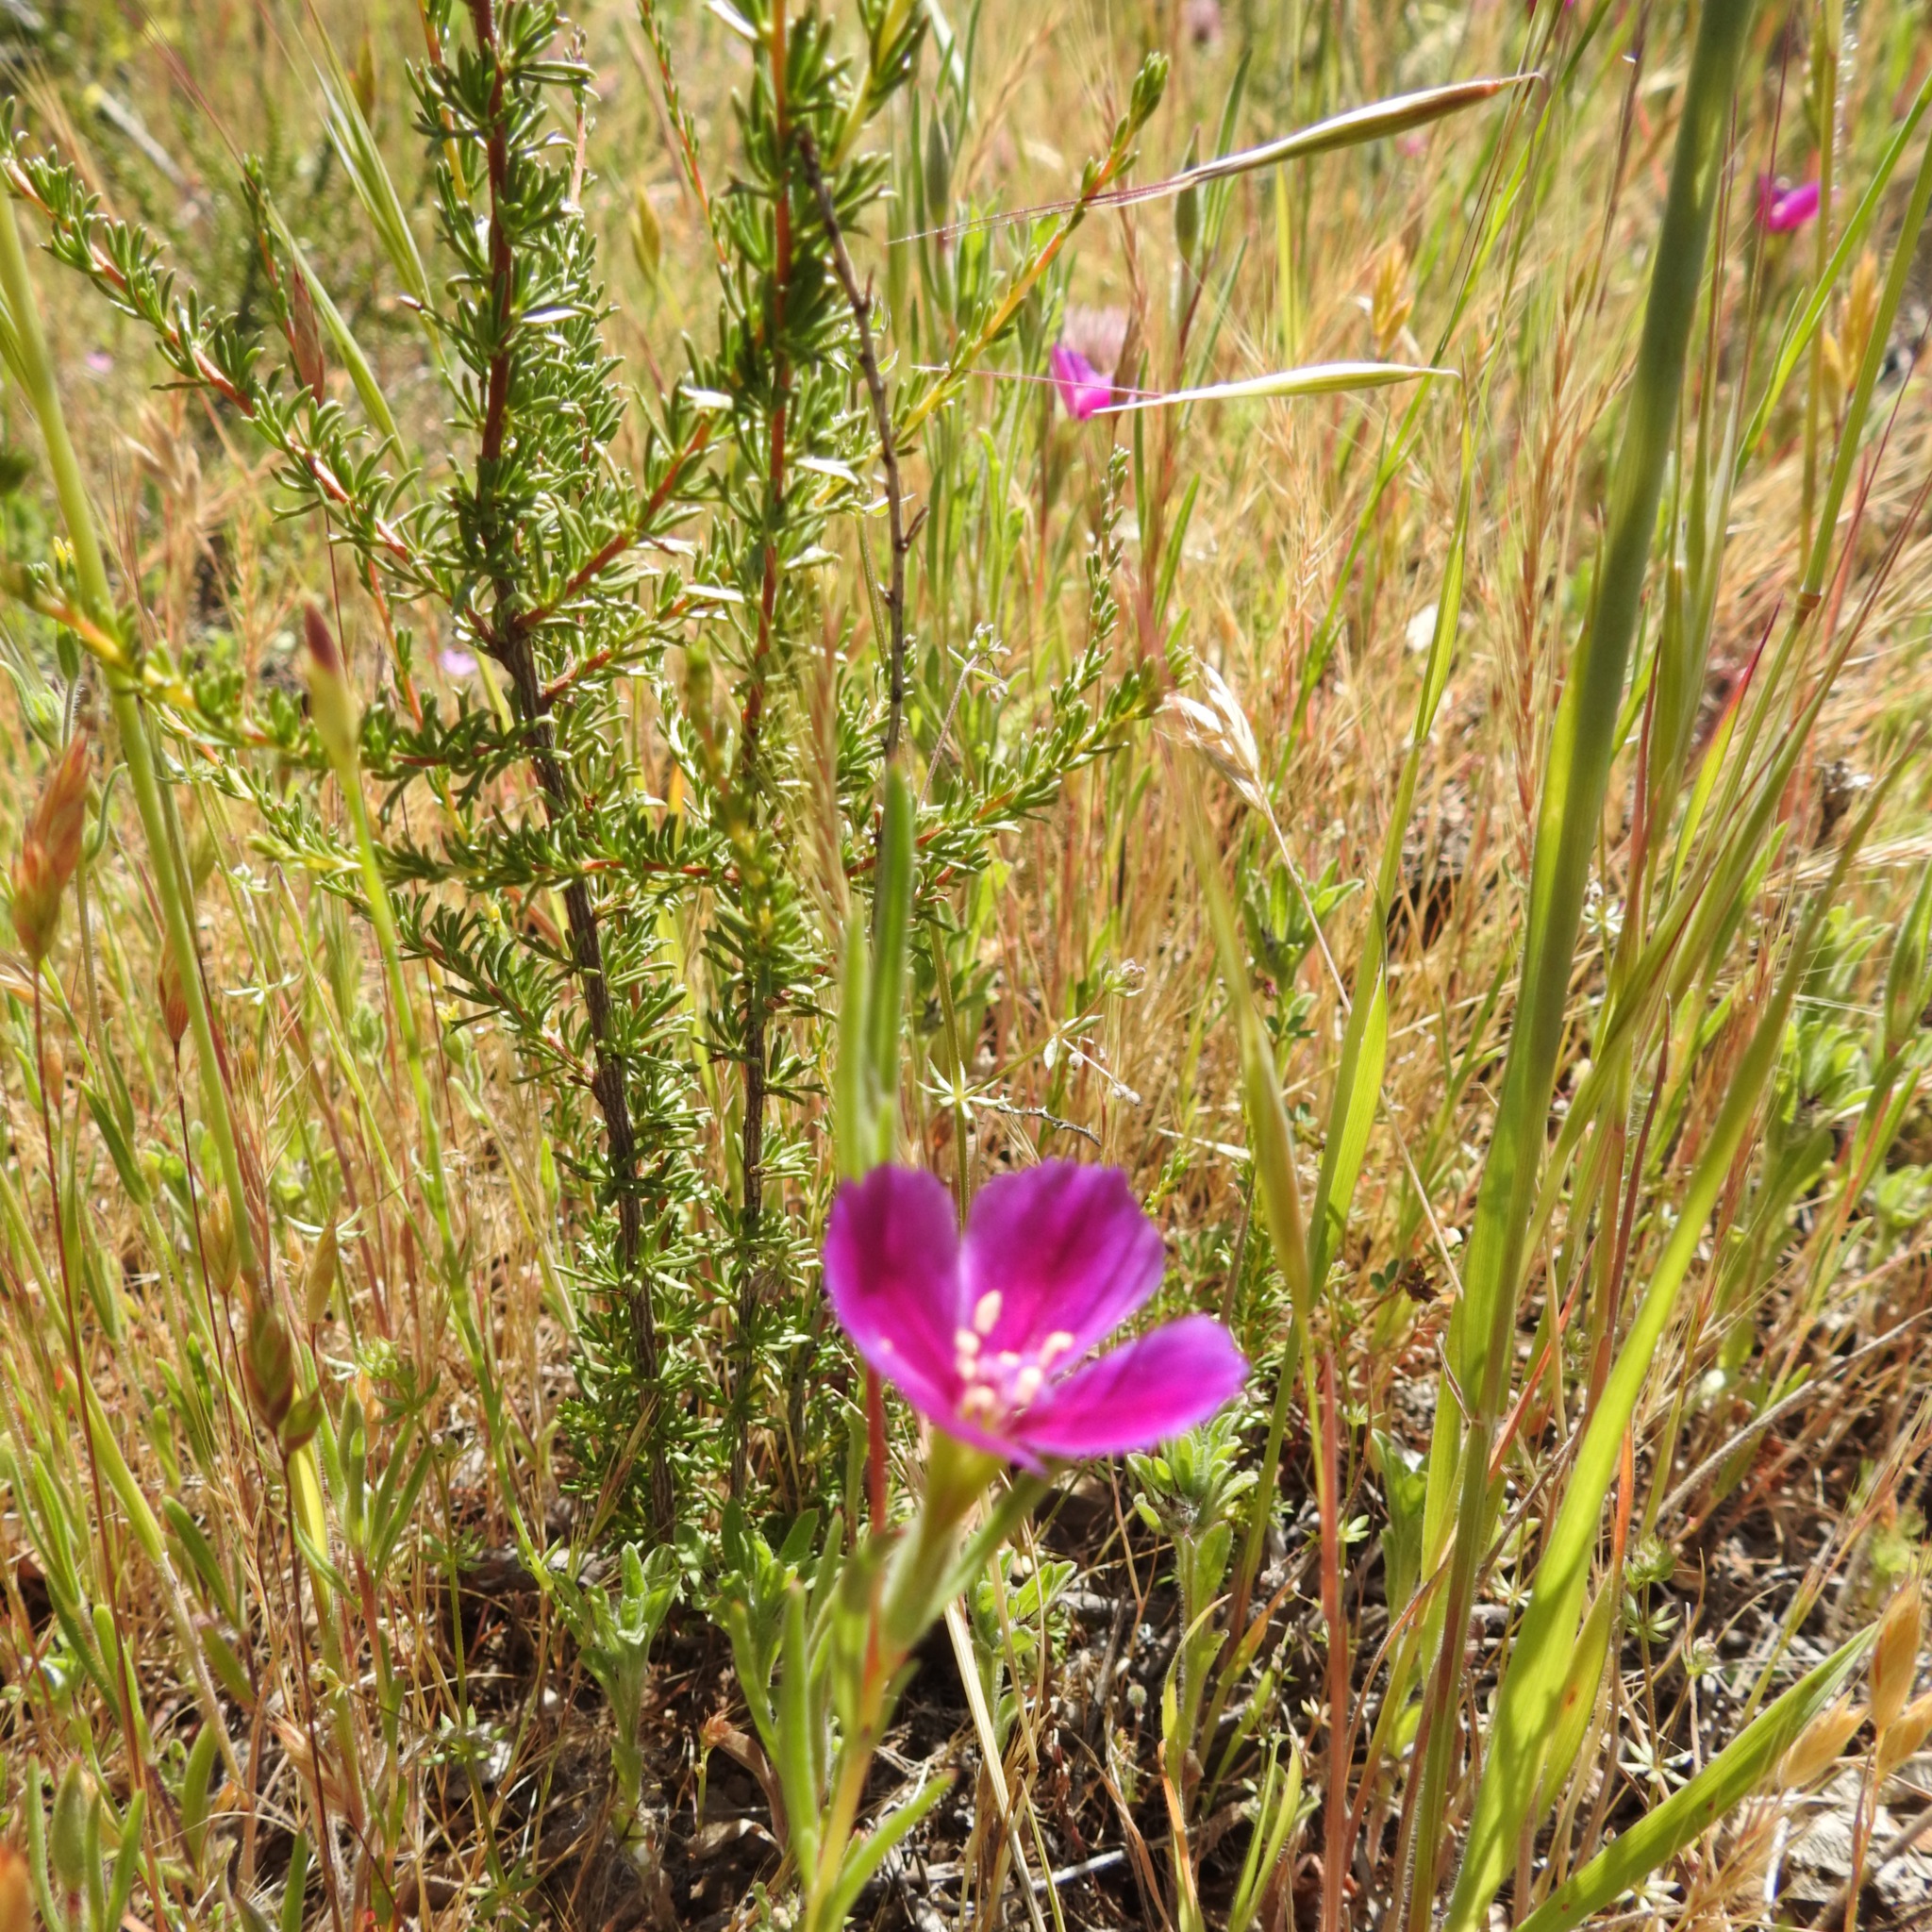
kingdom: Plantae
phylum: Tracheophyta
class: Magnoliopsida
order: Rosales
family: Rosaceae
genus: Adenostoma
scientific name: Adenostoma fasciculatum
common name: Chamise
